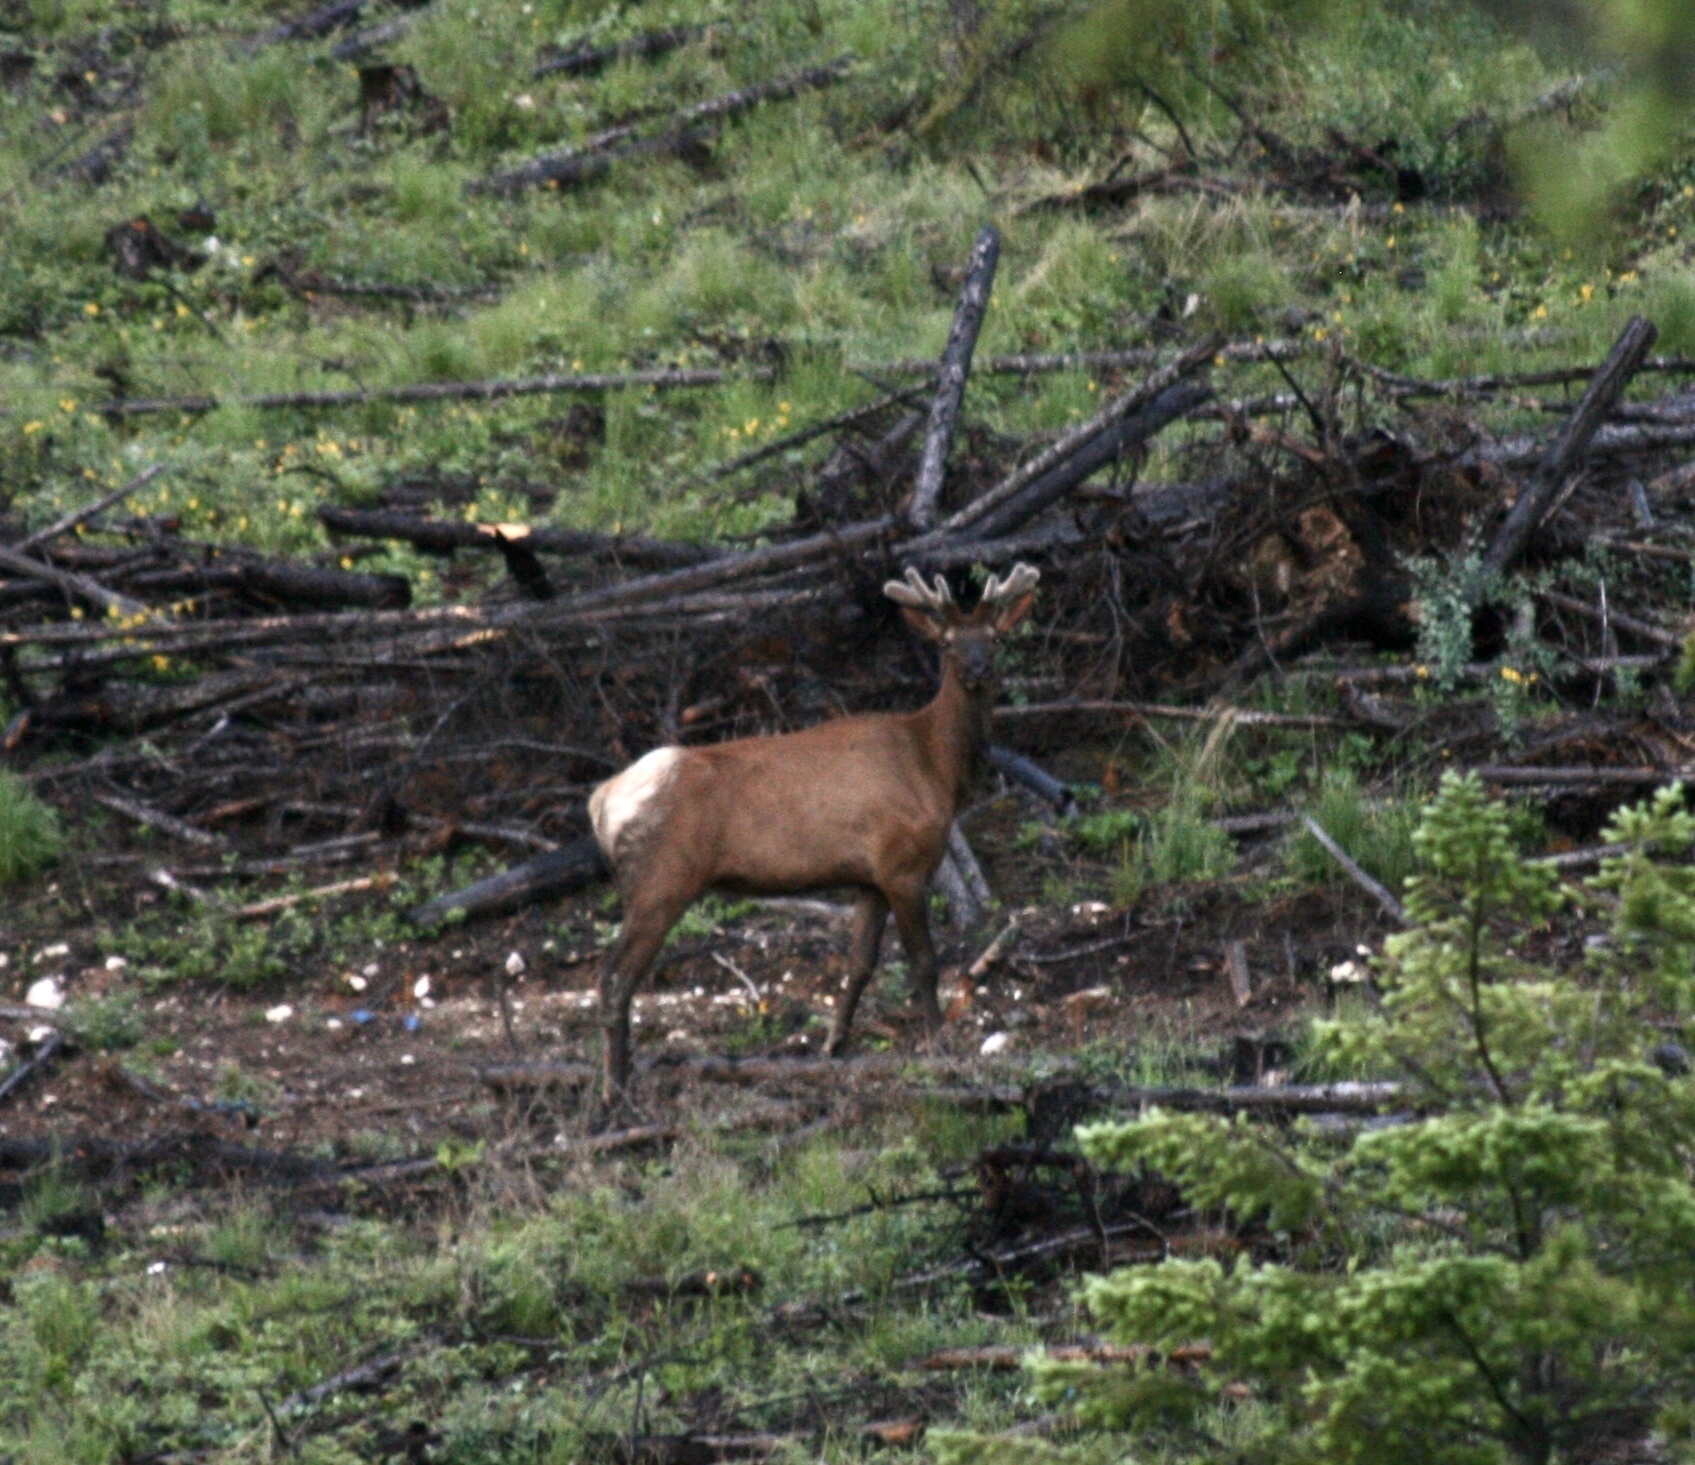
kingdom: Animalia
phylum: Chordata
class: Mammalia
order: Artiodactyla
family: Cervidae
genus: Cervus
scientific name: Cervus elaphus
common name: Red deer
